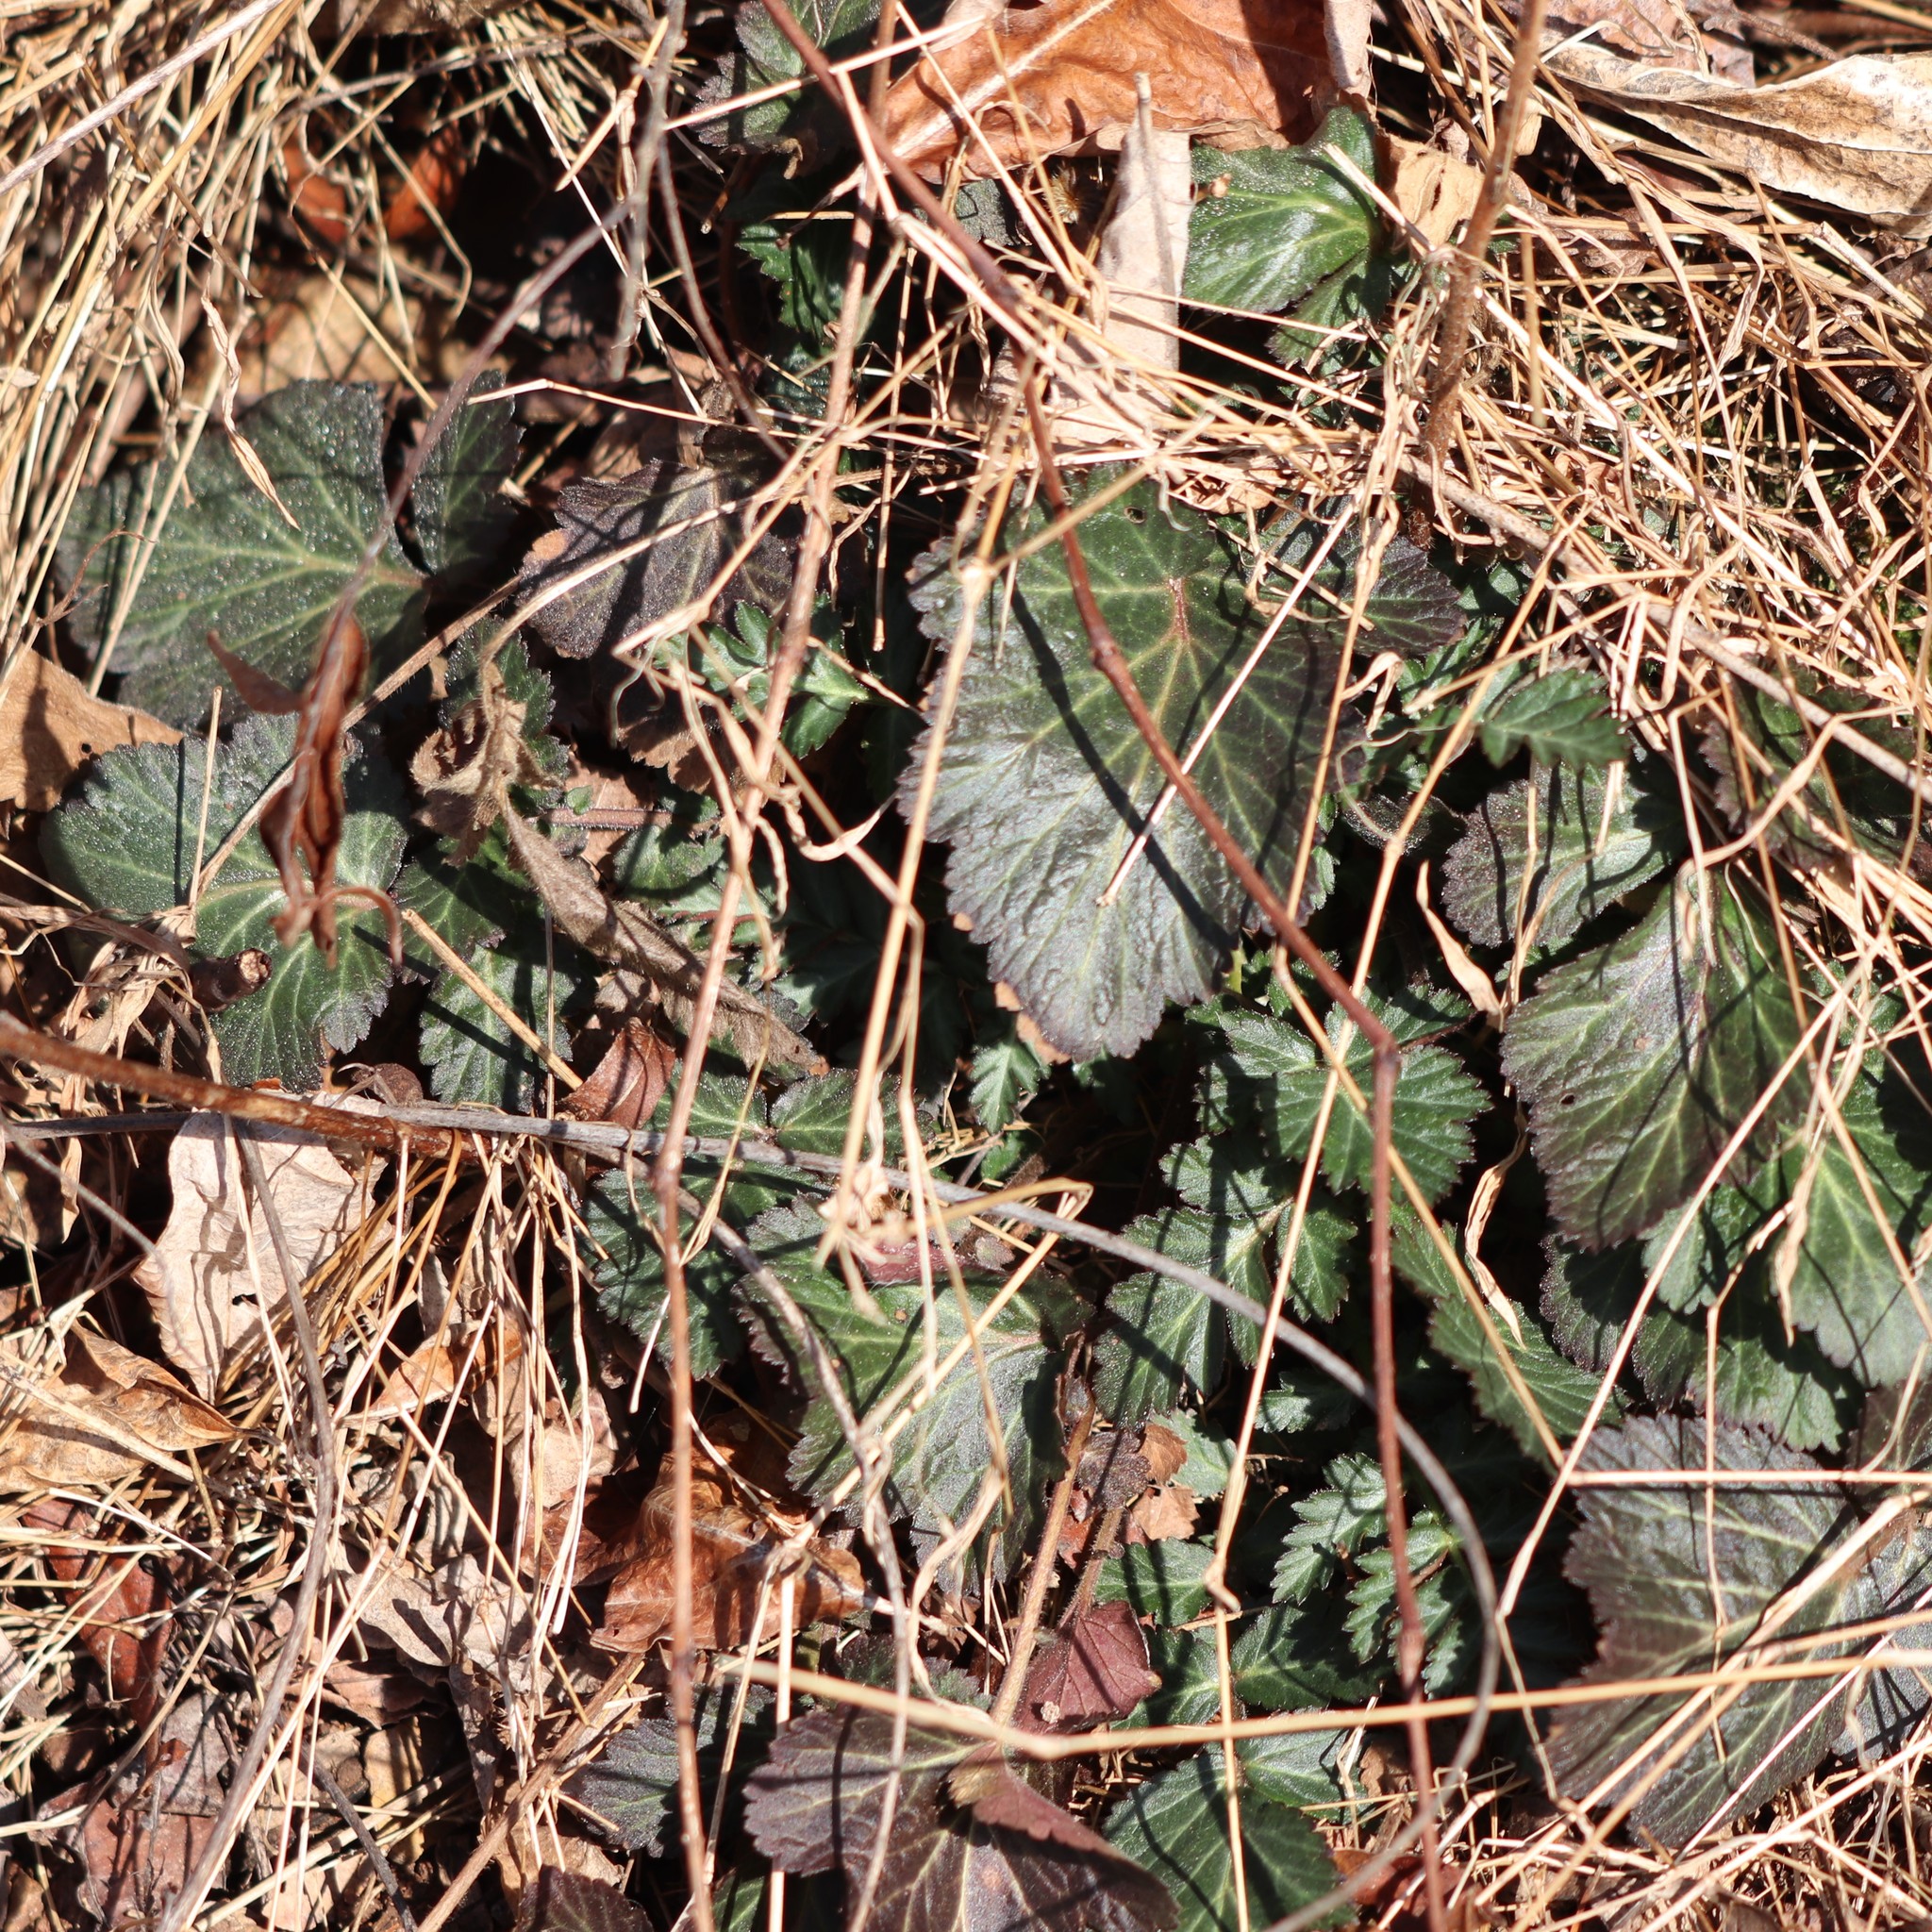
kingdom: Plantae
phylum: Tracheophyta
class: Magnoliopsida
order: Rosales
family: Rosaceae
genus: Geum
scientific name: Geum canadense
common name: White avens
